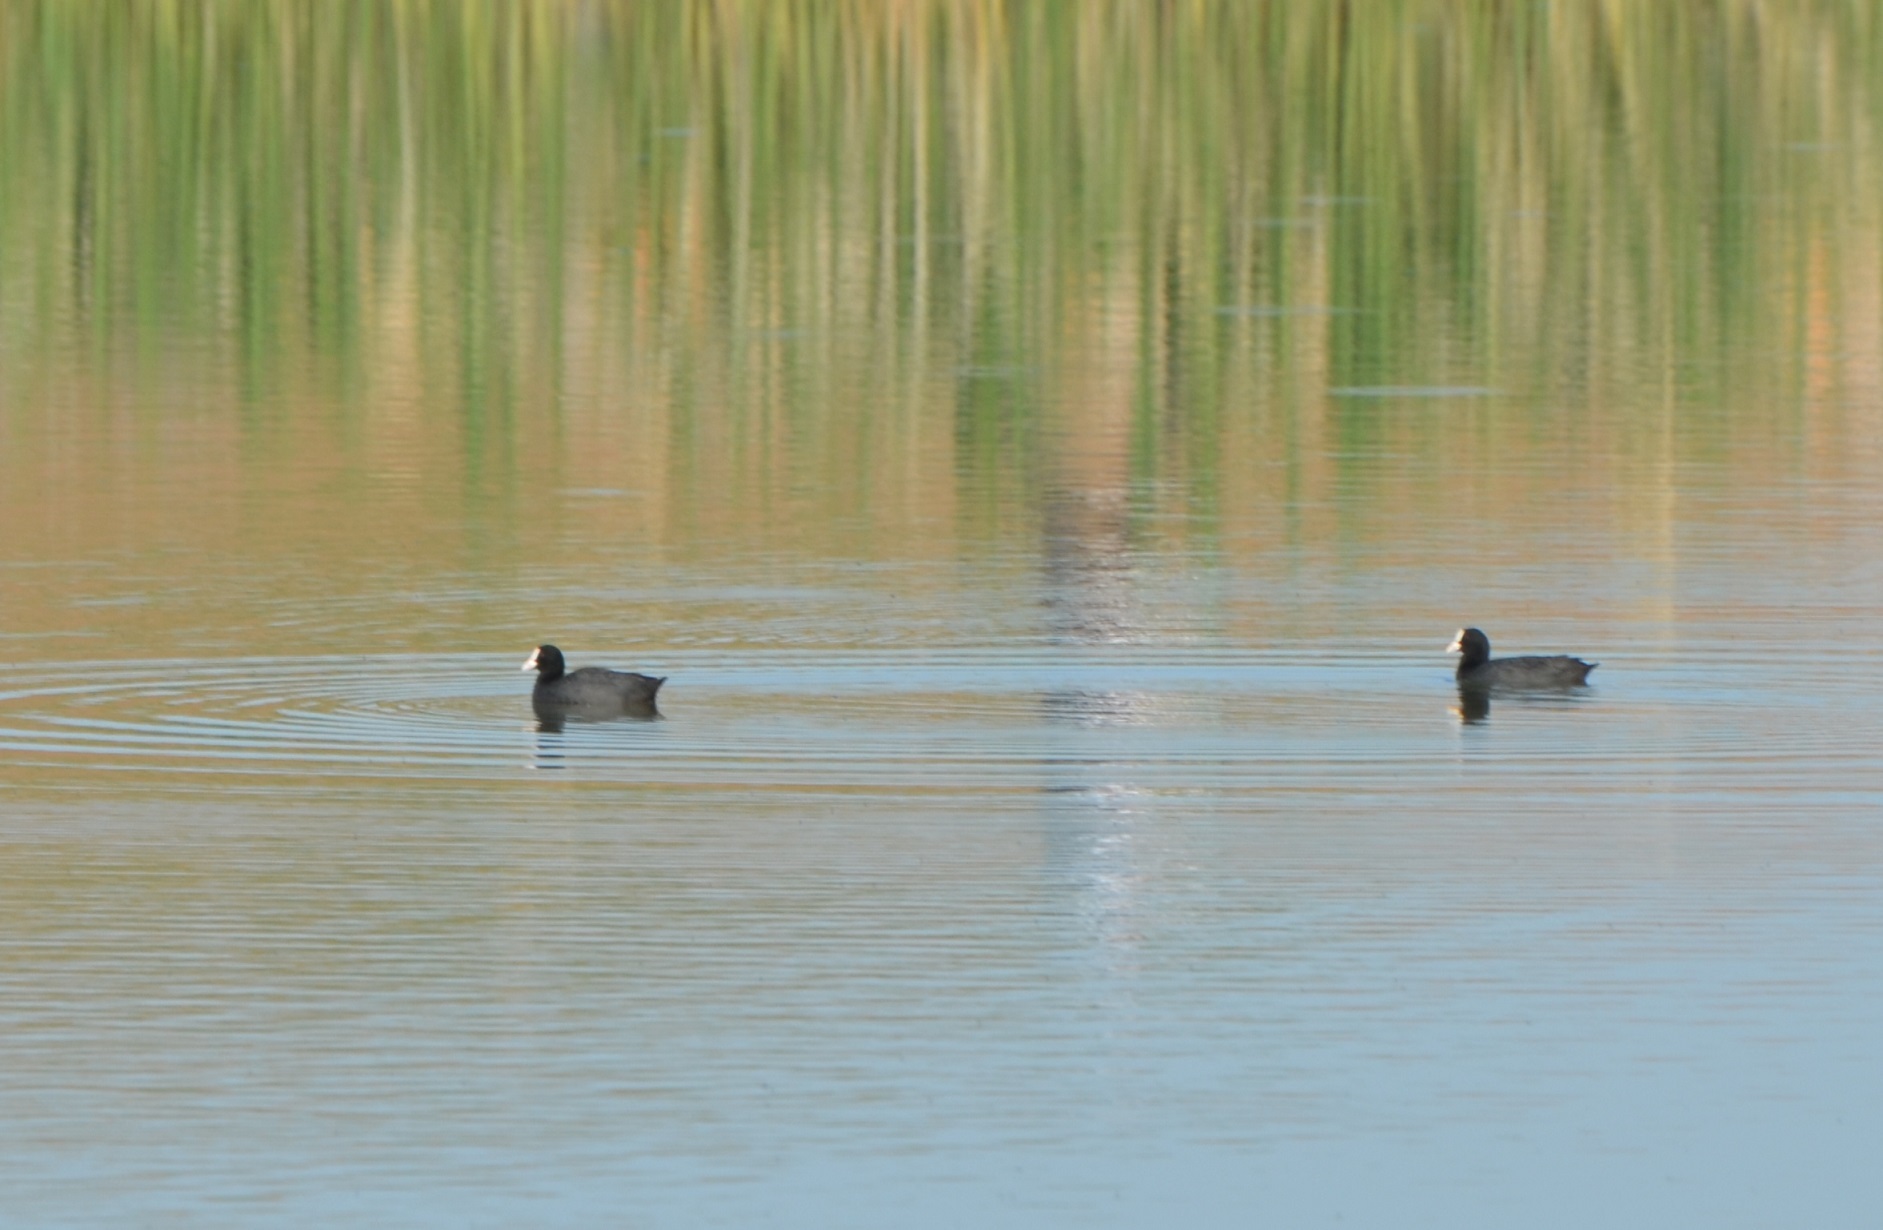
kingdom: Animalia
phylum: Chordata
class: Aves
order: Gruiformes
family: Rallidae
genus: Fulica
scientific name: Fulica atra
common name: Eurasian coot
